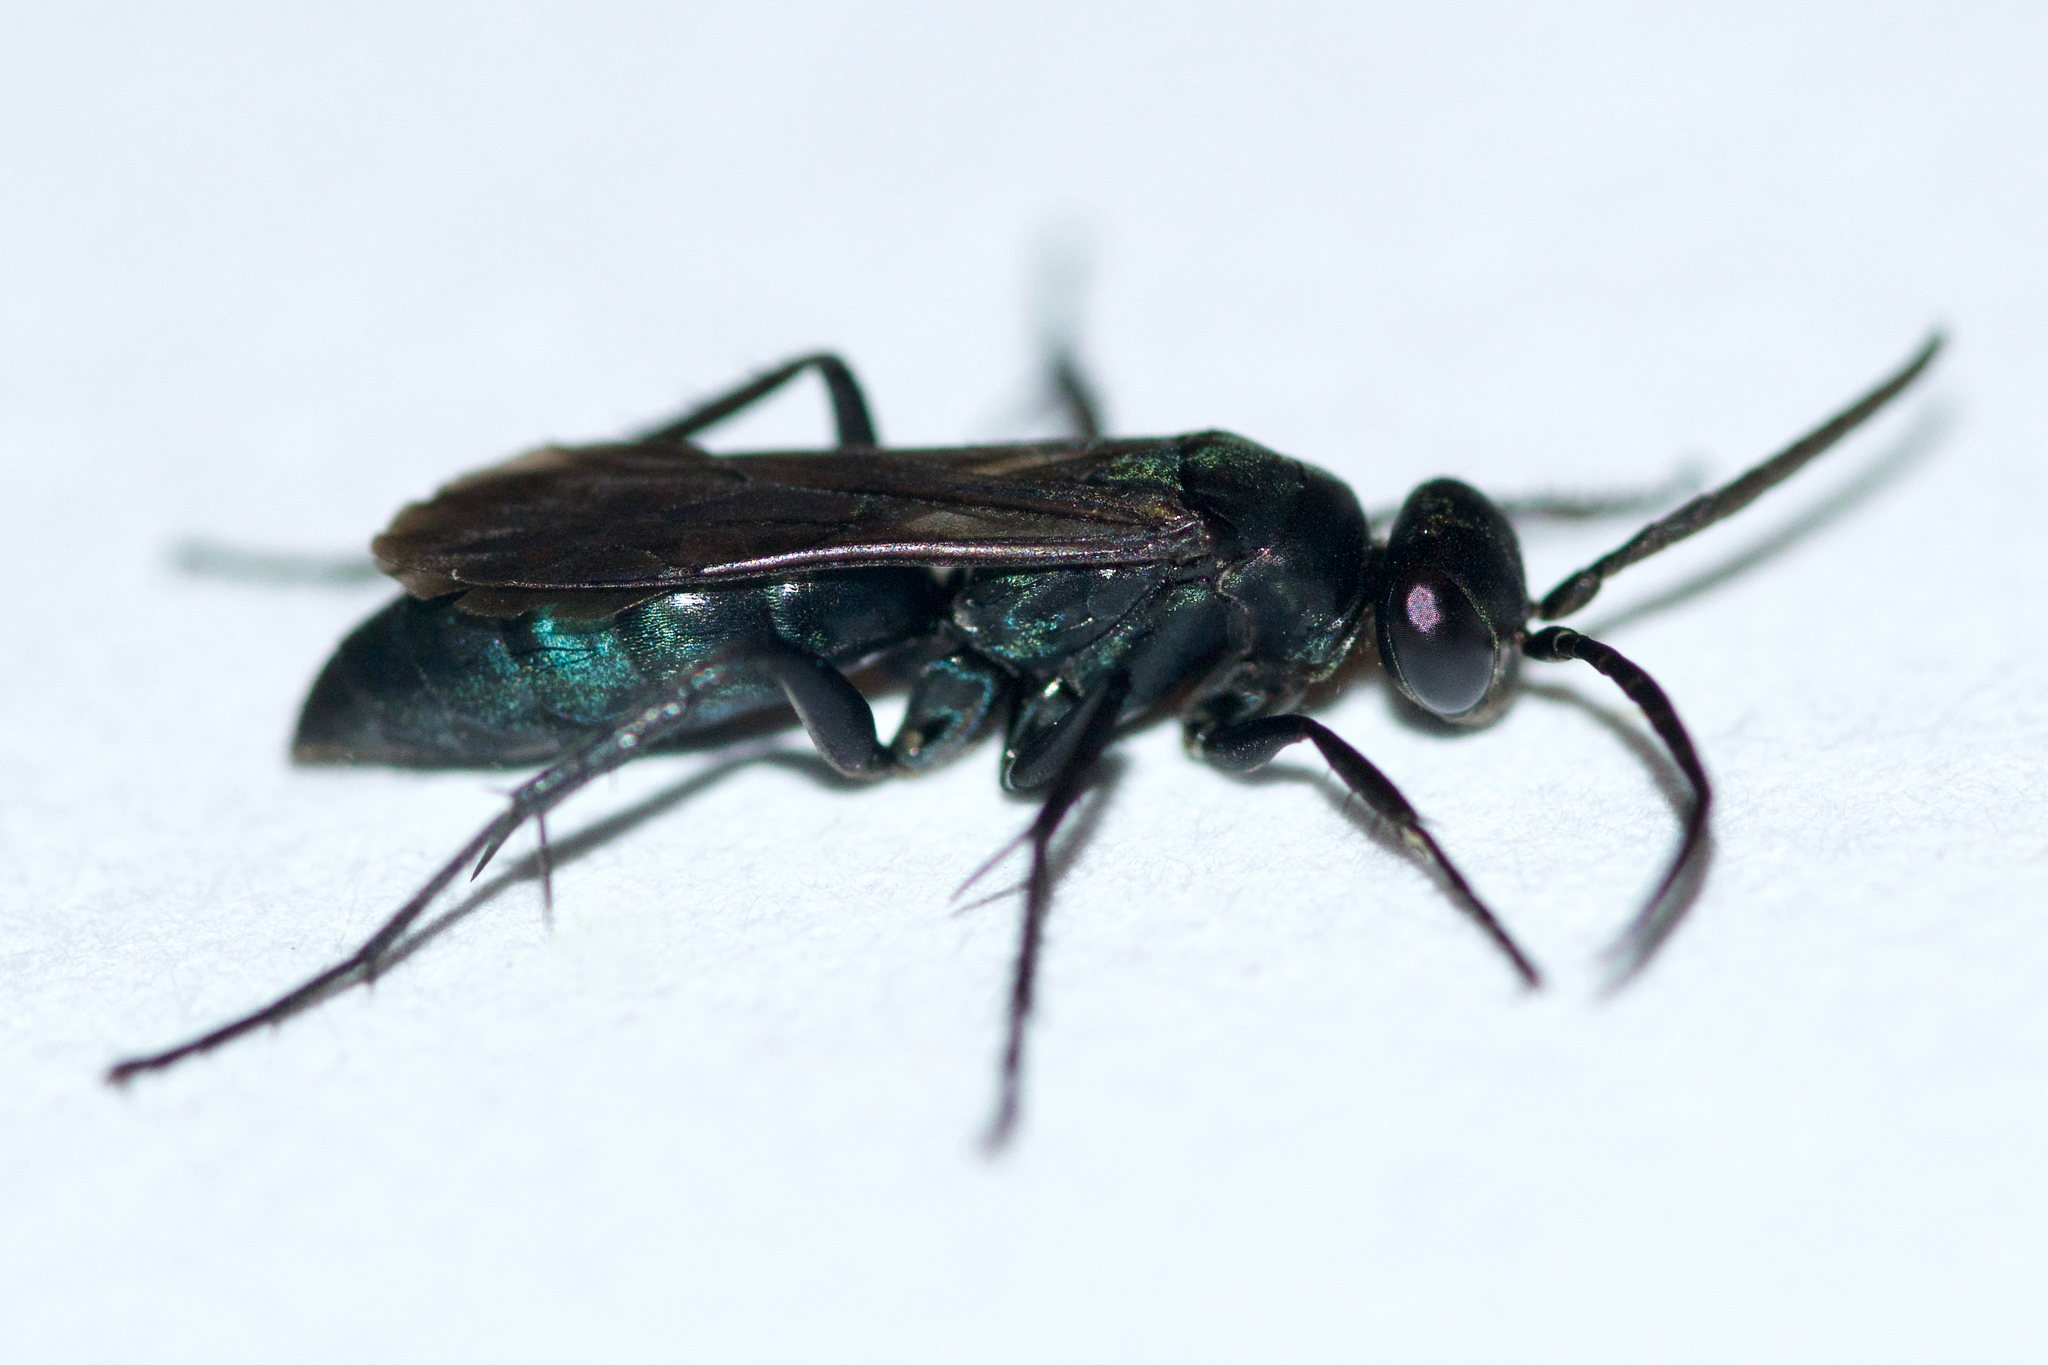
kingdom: Animalia
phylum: Arthropoda
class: Insecta
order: Hymenoptera
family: Pompilidae
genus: Evagetes
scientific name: Evagetes parvus
